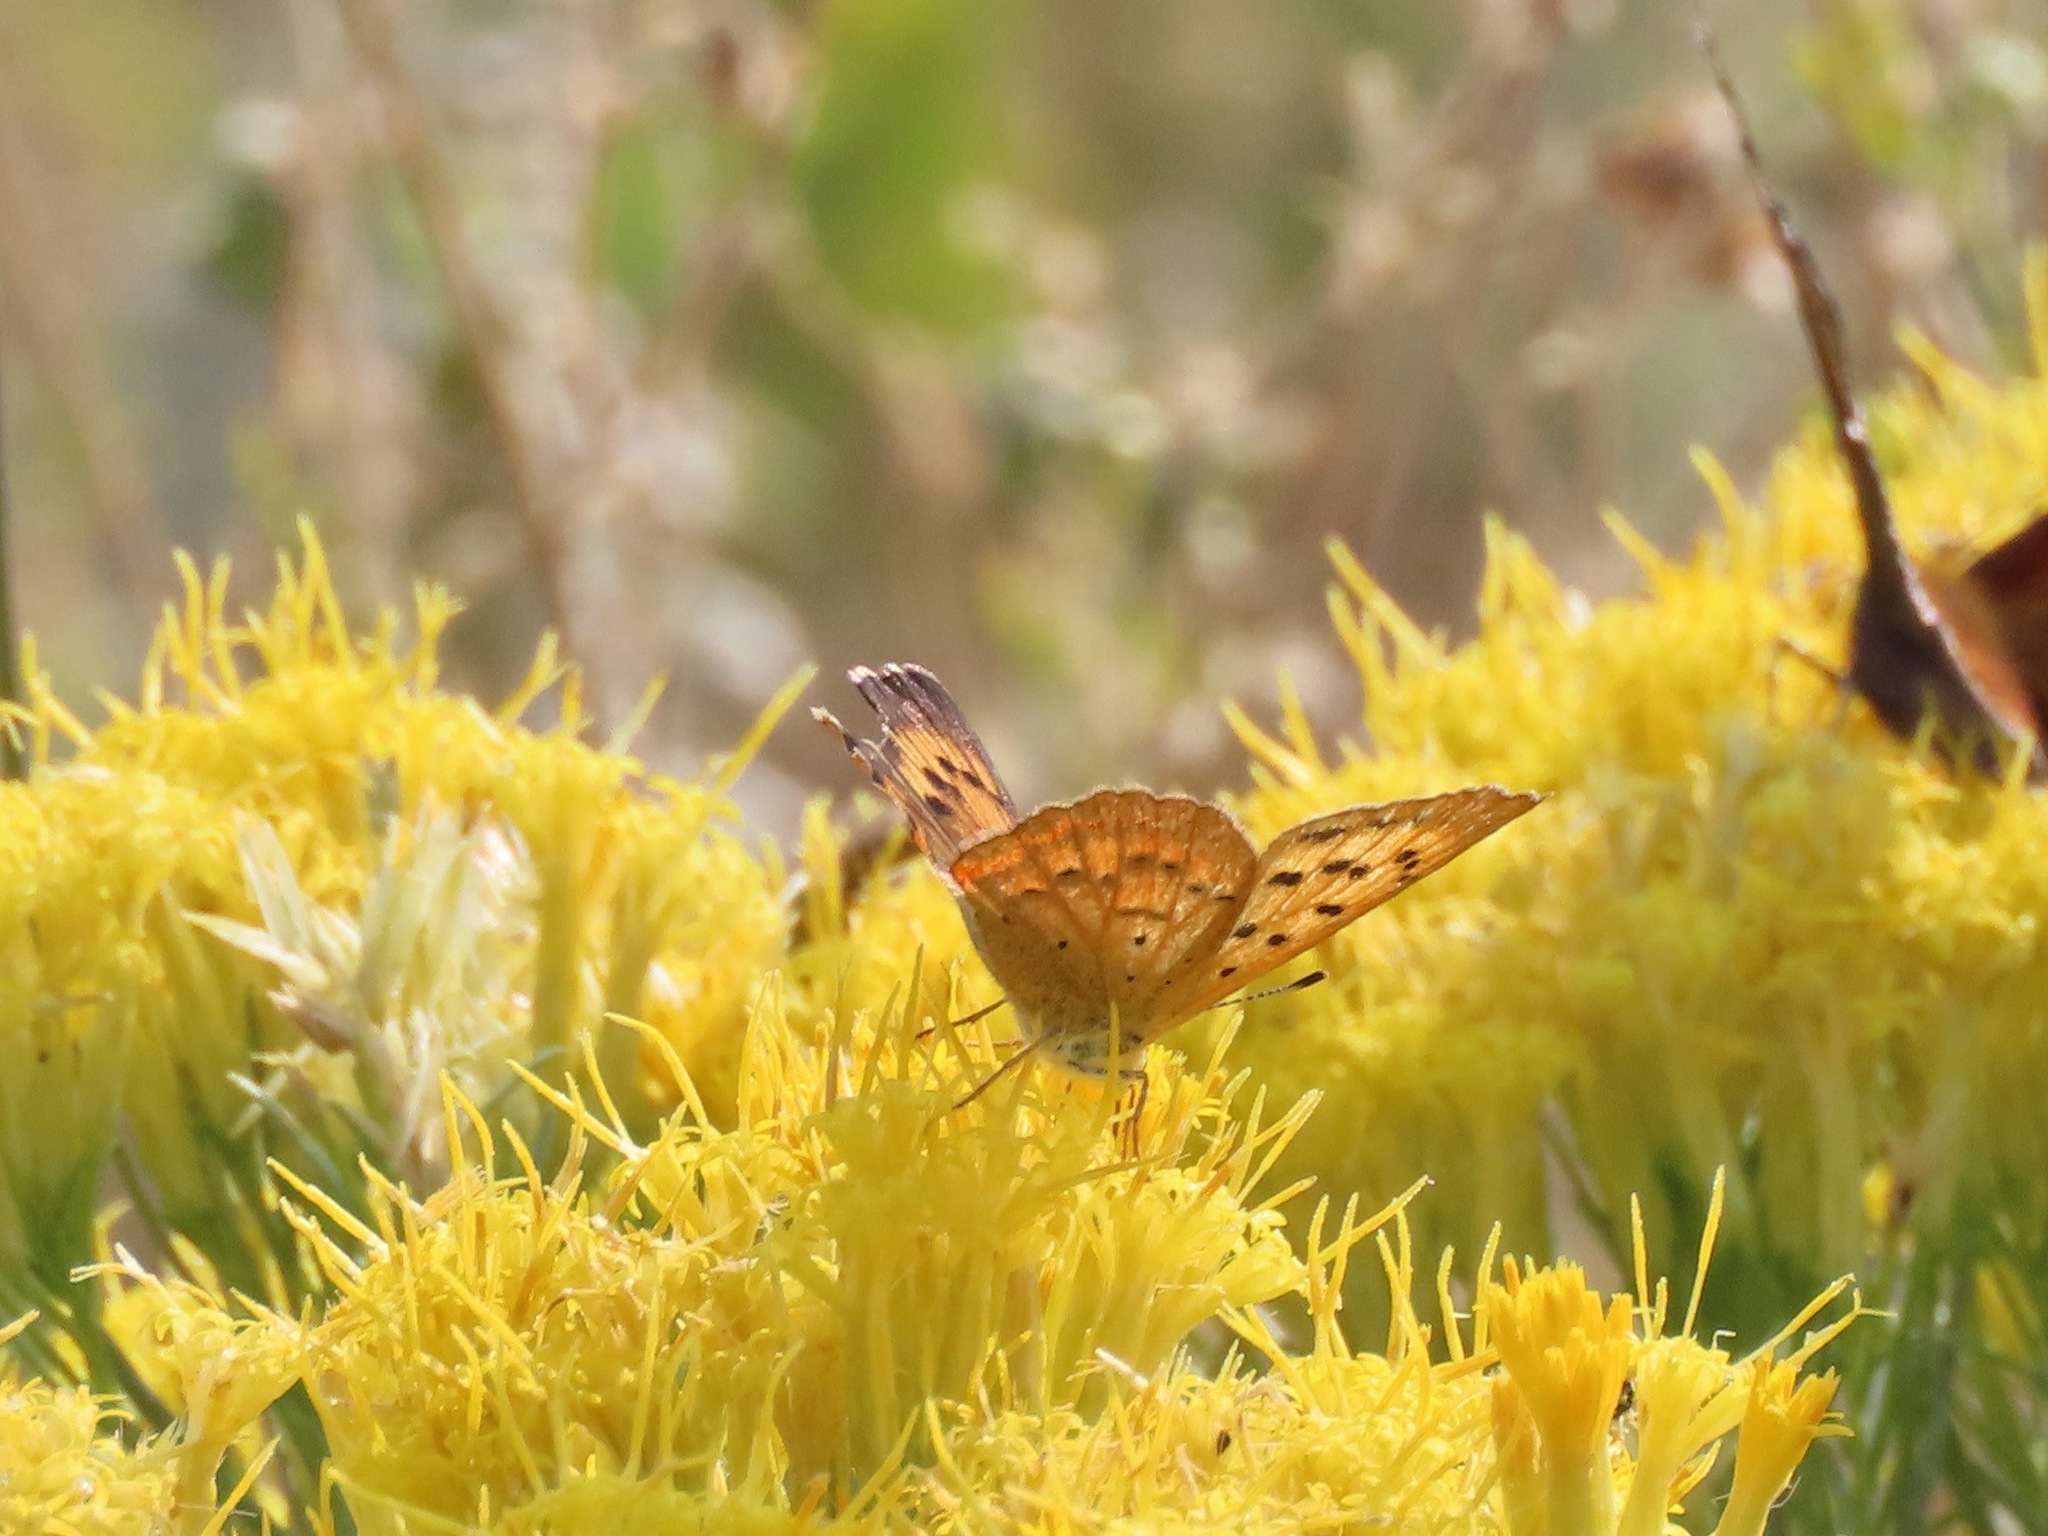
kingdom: Animalia
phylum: Arthropoda
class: Insecta
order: Lepidoptera
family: Lycaenidae
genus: Tharsalea
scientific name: Tharsalea helloides
